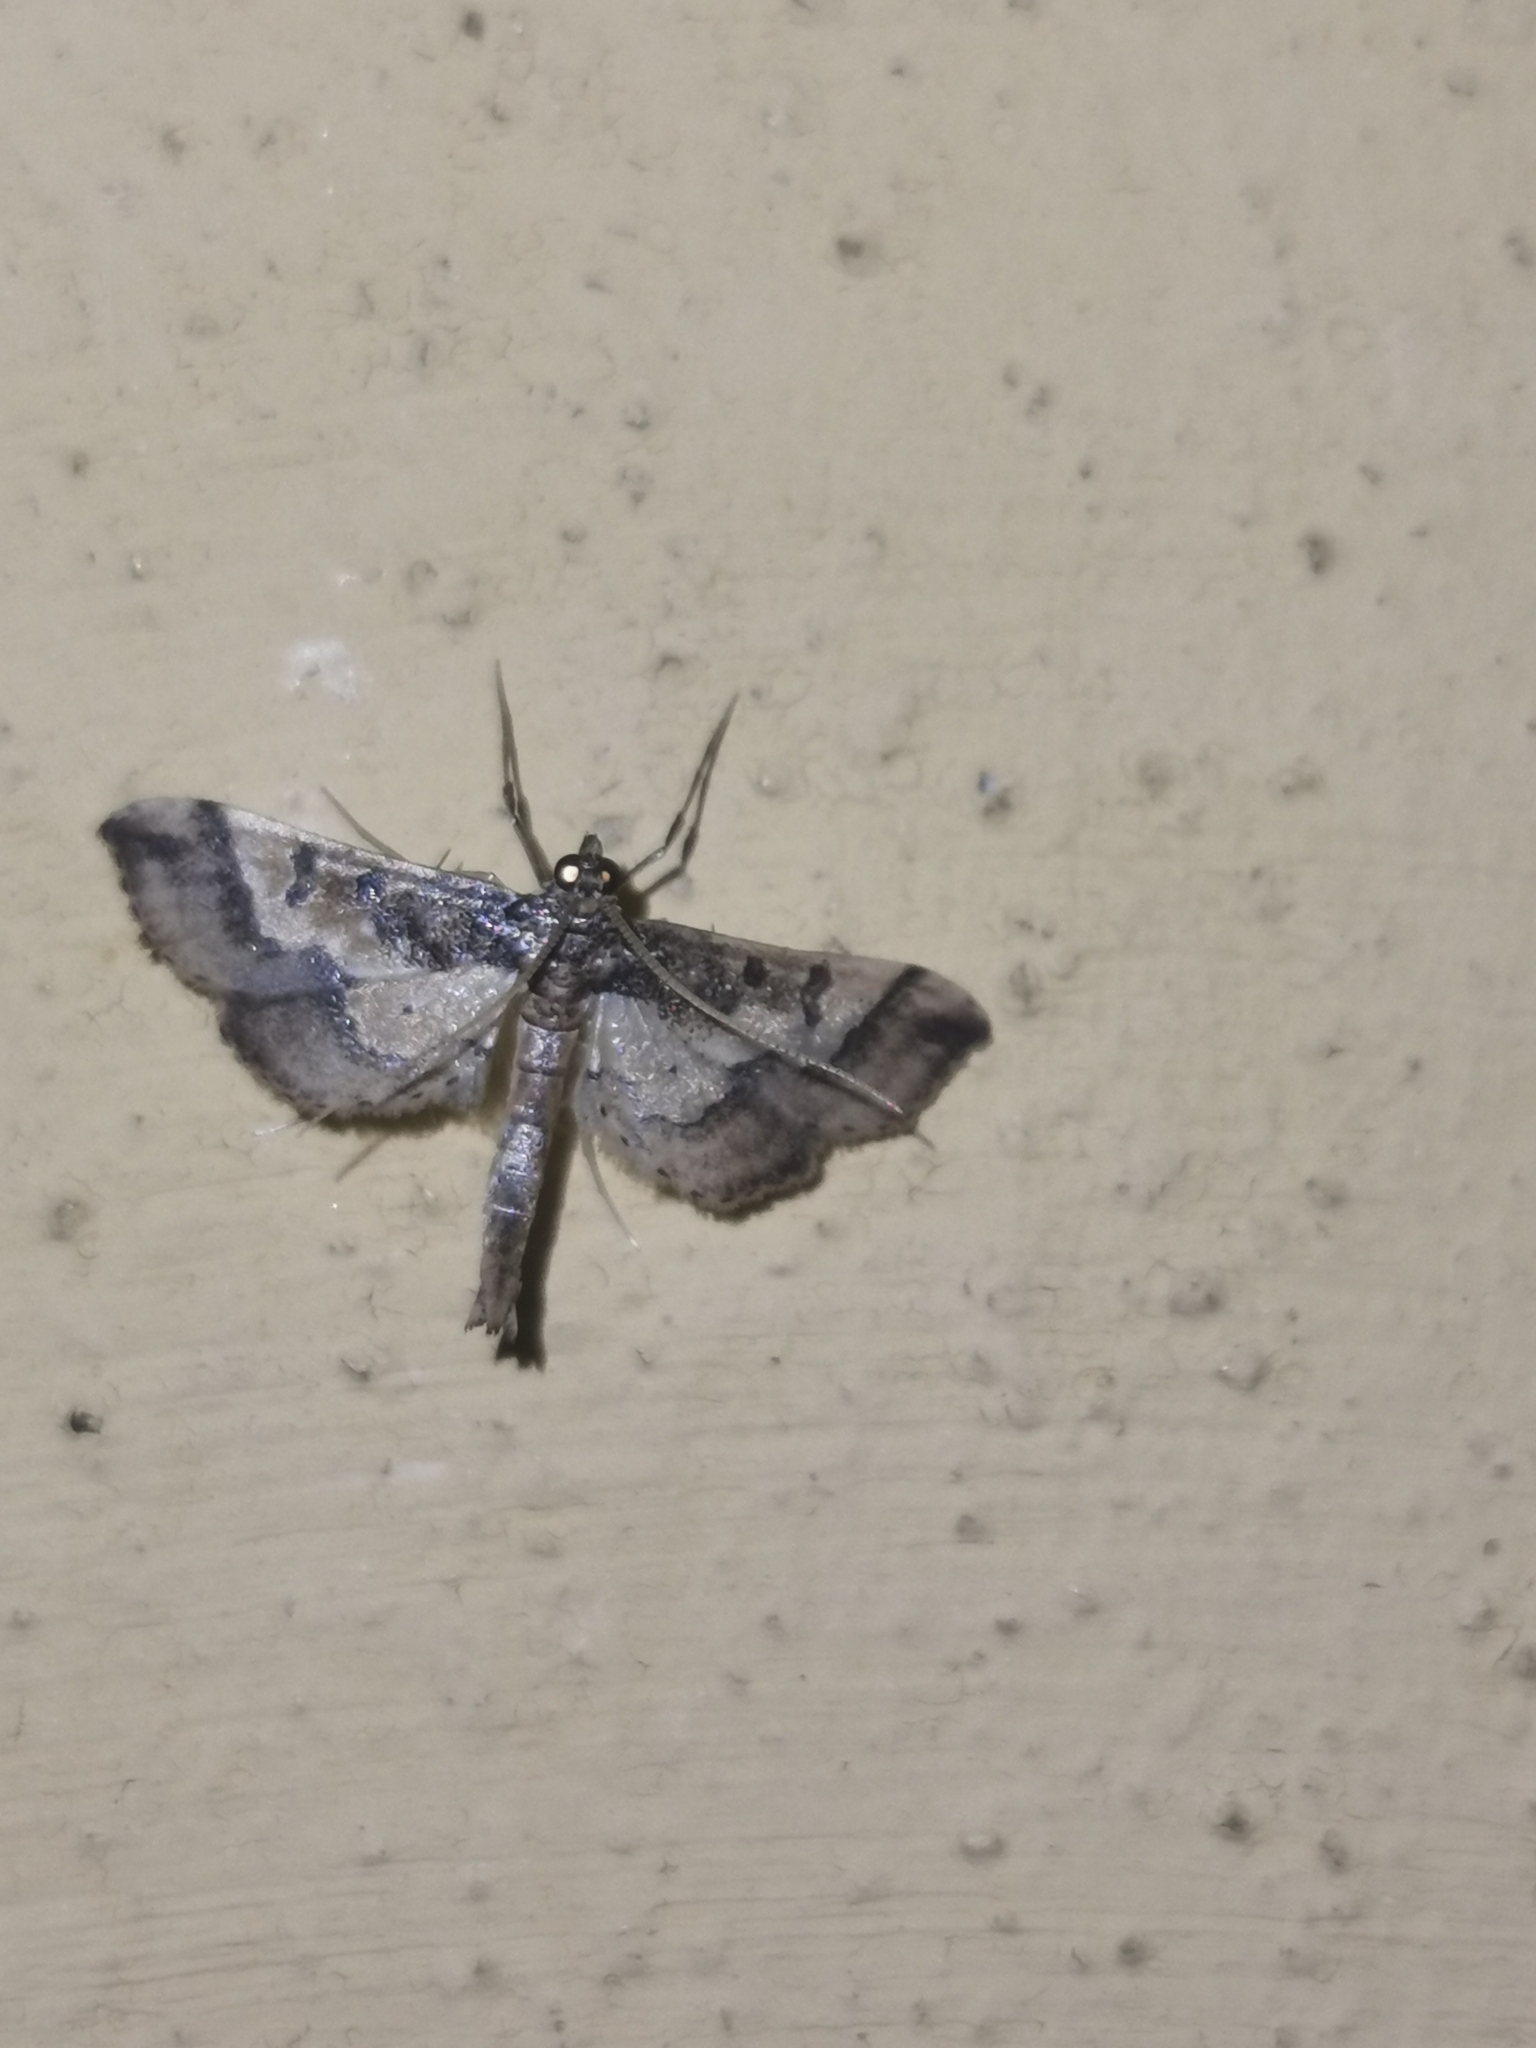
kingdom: Animalia
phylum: Arthropoda
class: Insecta
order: Lepidoptera
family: Crambidae
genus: Hydriris
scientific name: Hydriris ornatalis
